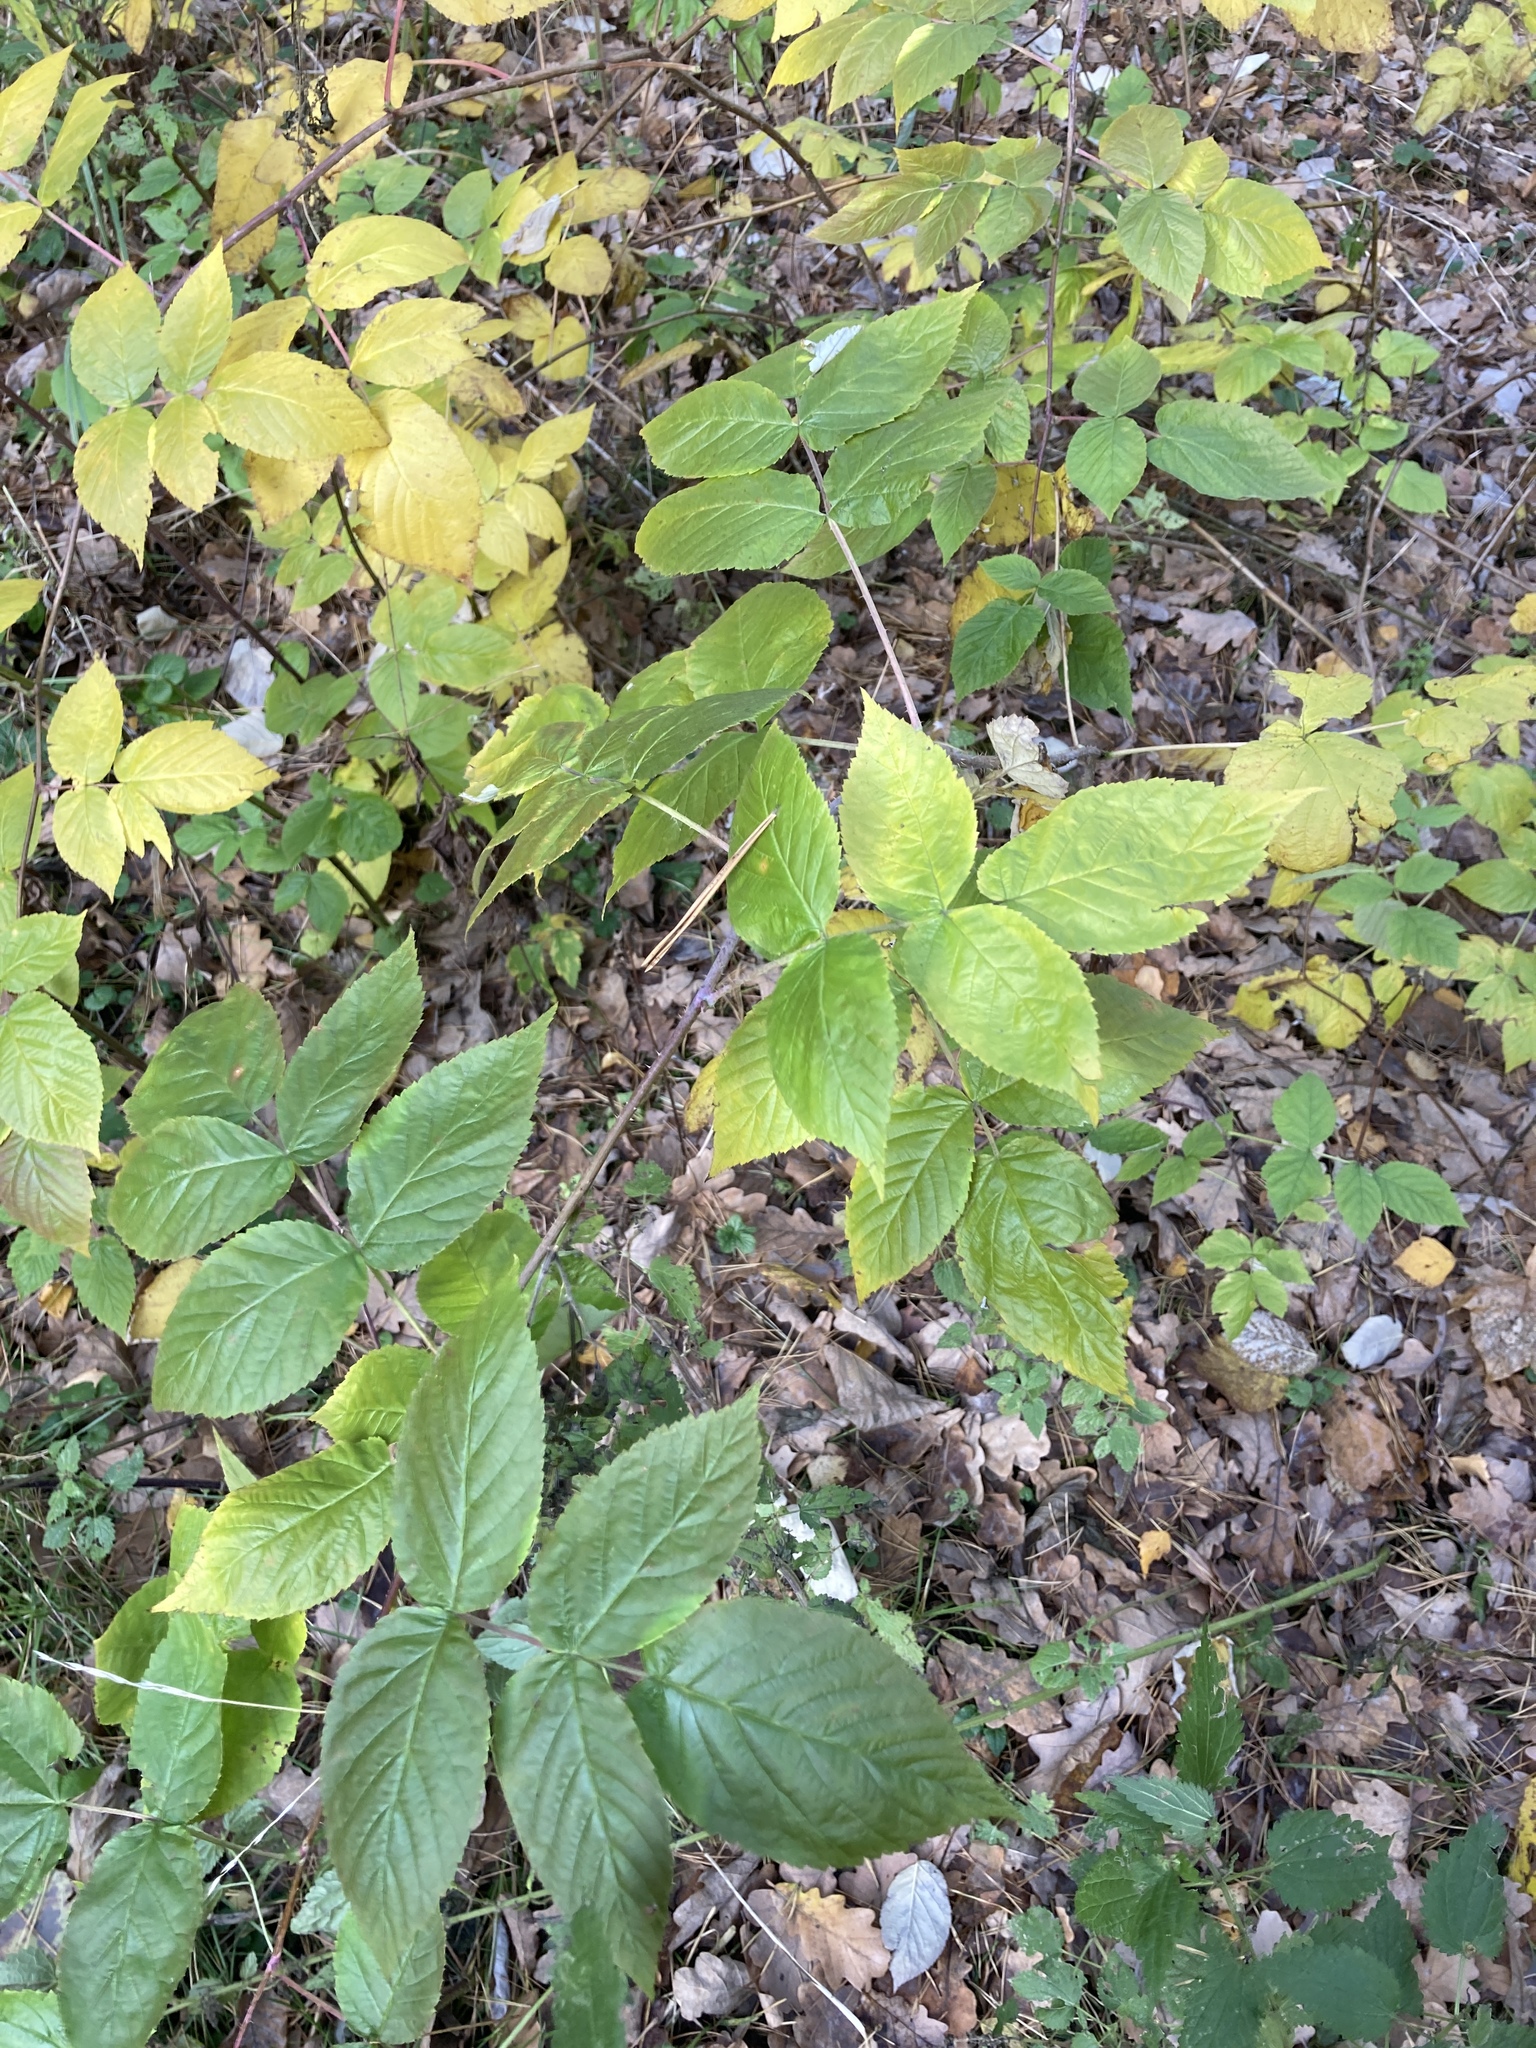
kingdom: Plantae
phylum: Tracheophyta
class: Magnoliopsida
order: Rosales
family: Rosaceae
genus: Rubus
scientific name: Rubus idaeus
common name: Raspberry
